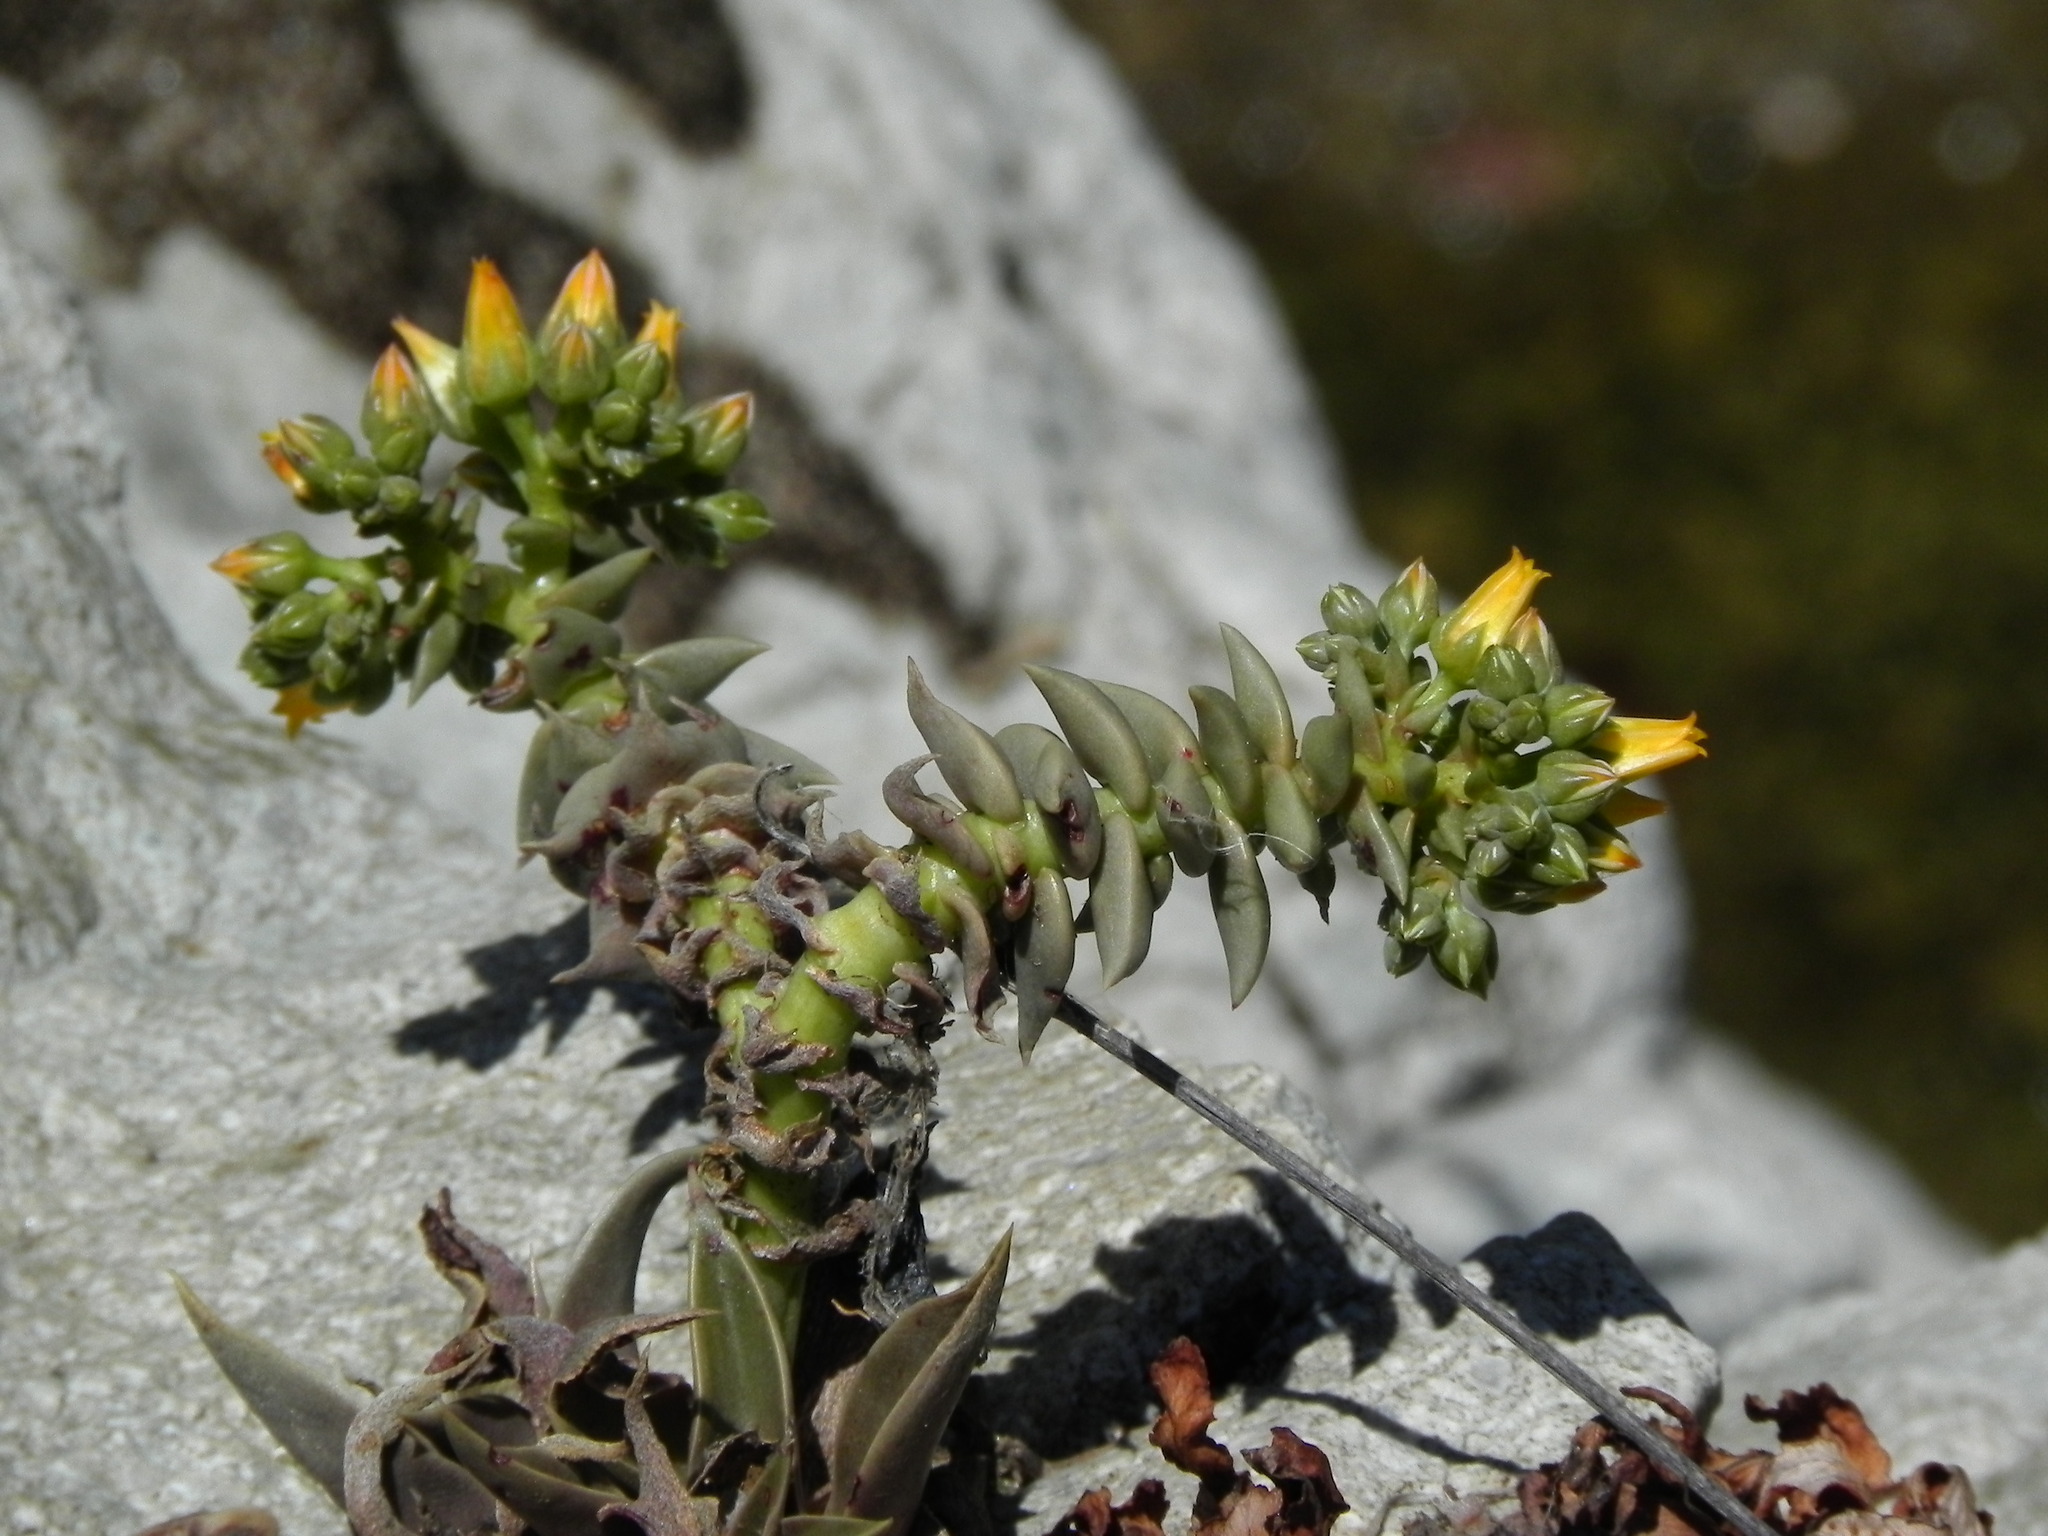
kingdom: Plantae
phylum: Tracheophyta
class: Magnoliopsida
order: Saxifragales
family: Crassulaceae
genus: Dudleya
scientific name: Dudleya cymosa
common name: Canyon dudleya
